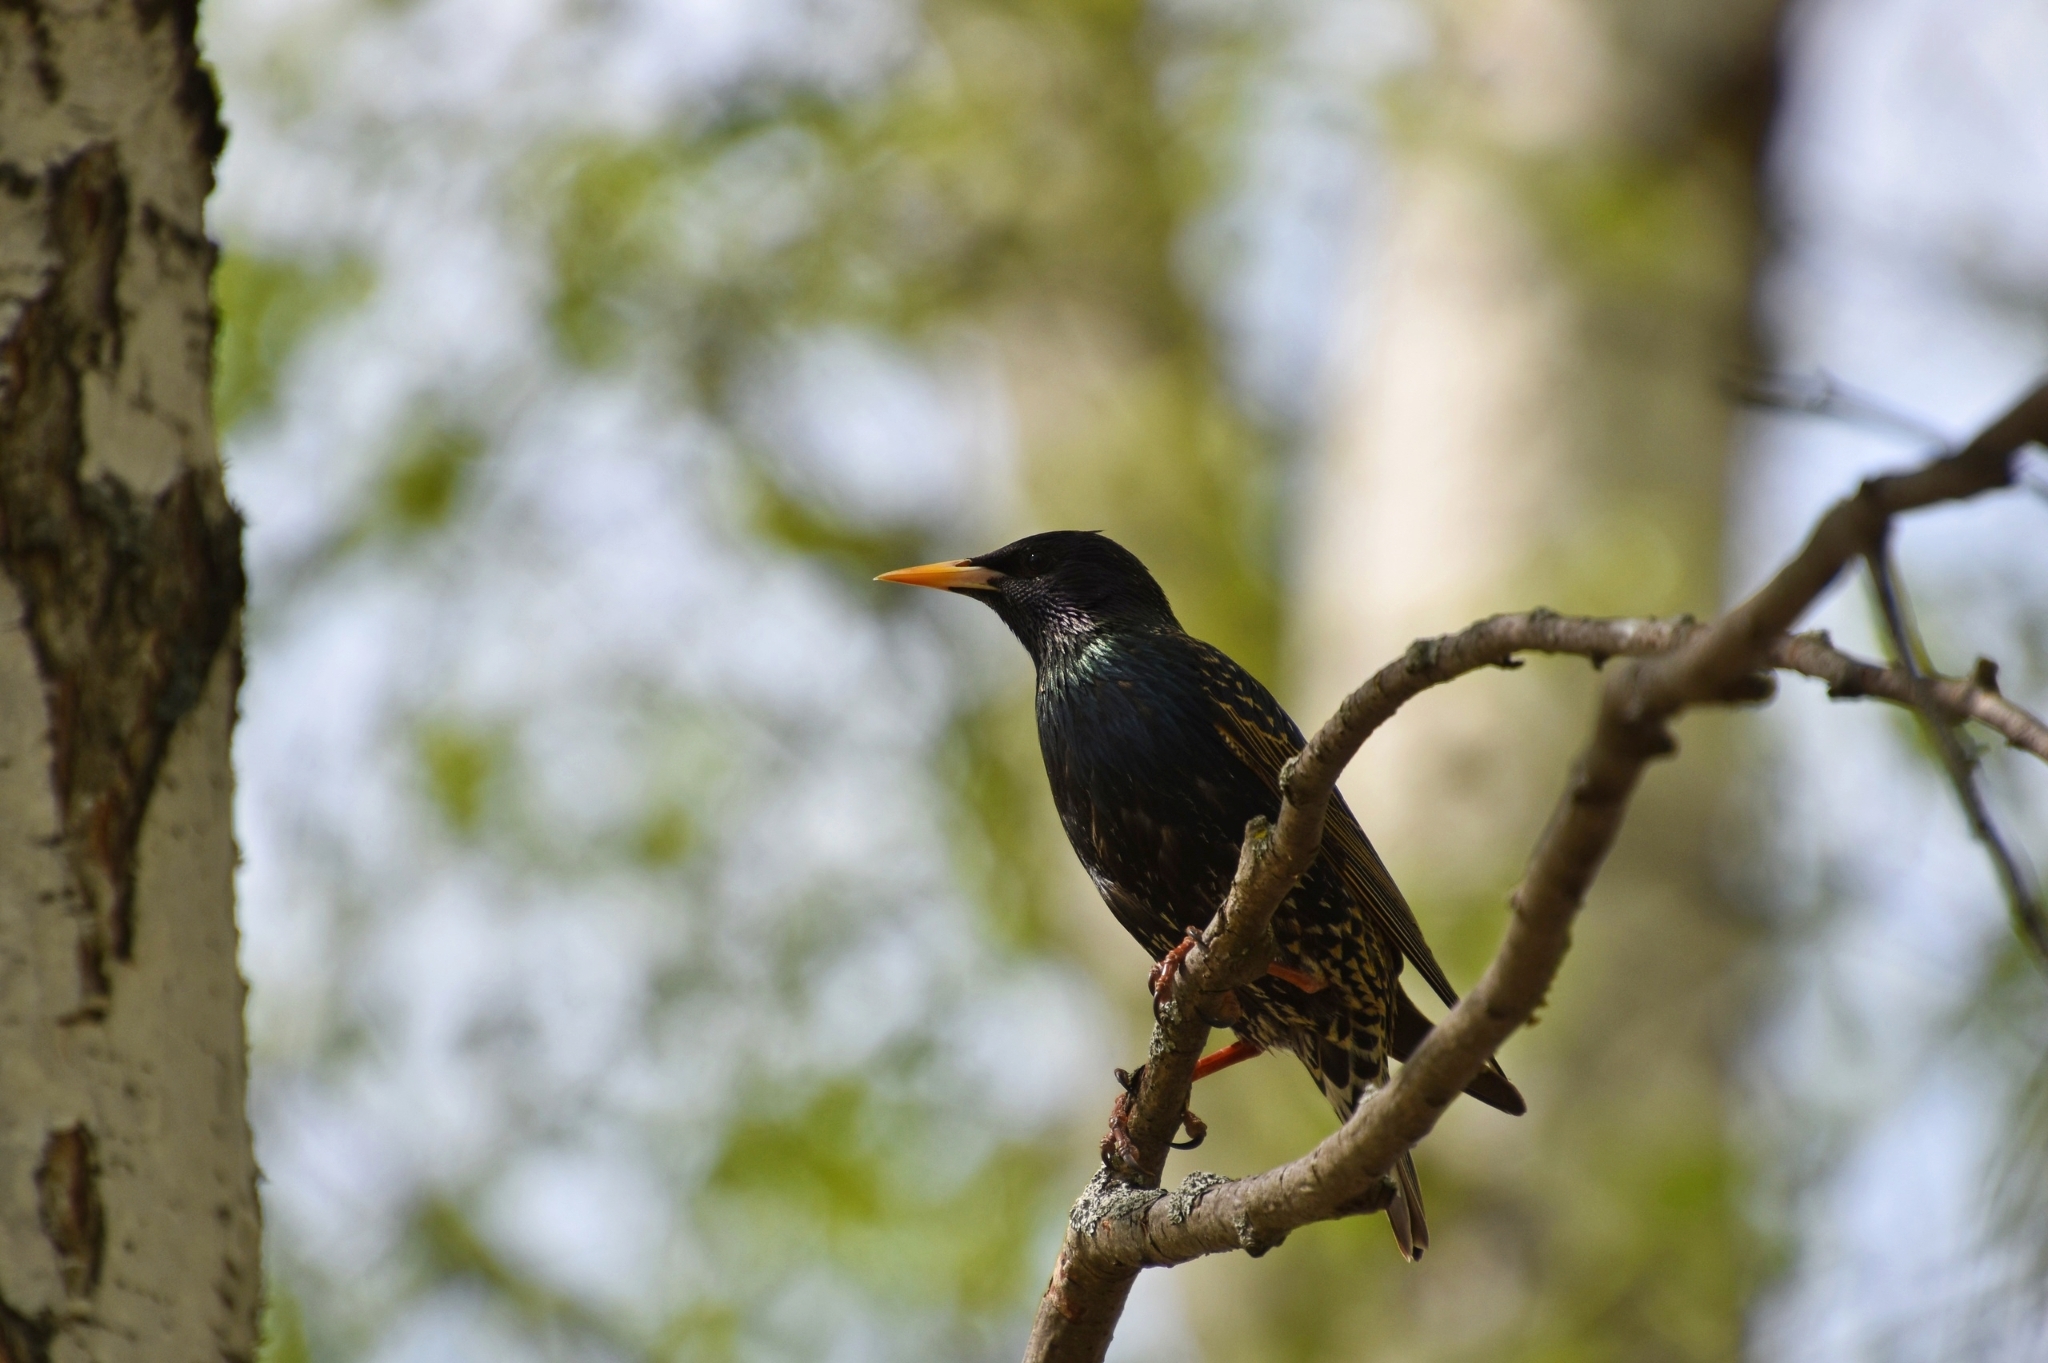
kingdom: Animalia
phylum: Chordata
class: Aves
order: Passeriformes
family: Sturnidae
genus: Sturnus
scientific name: Sturnus vulgaris
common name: Common starling
